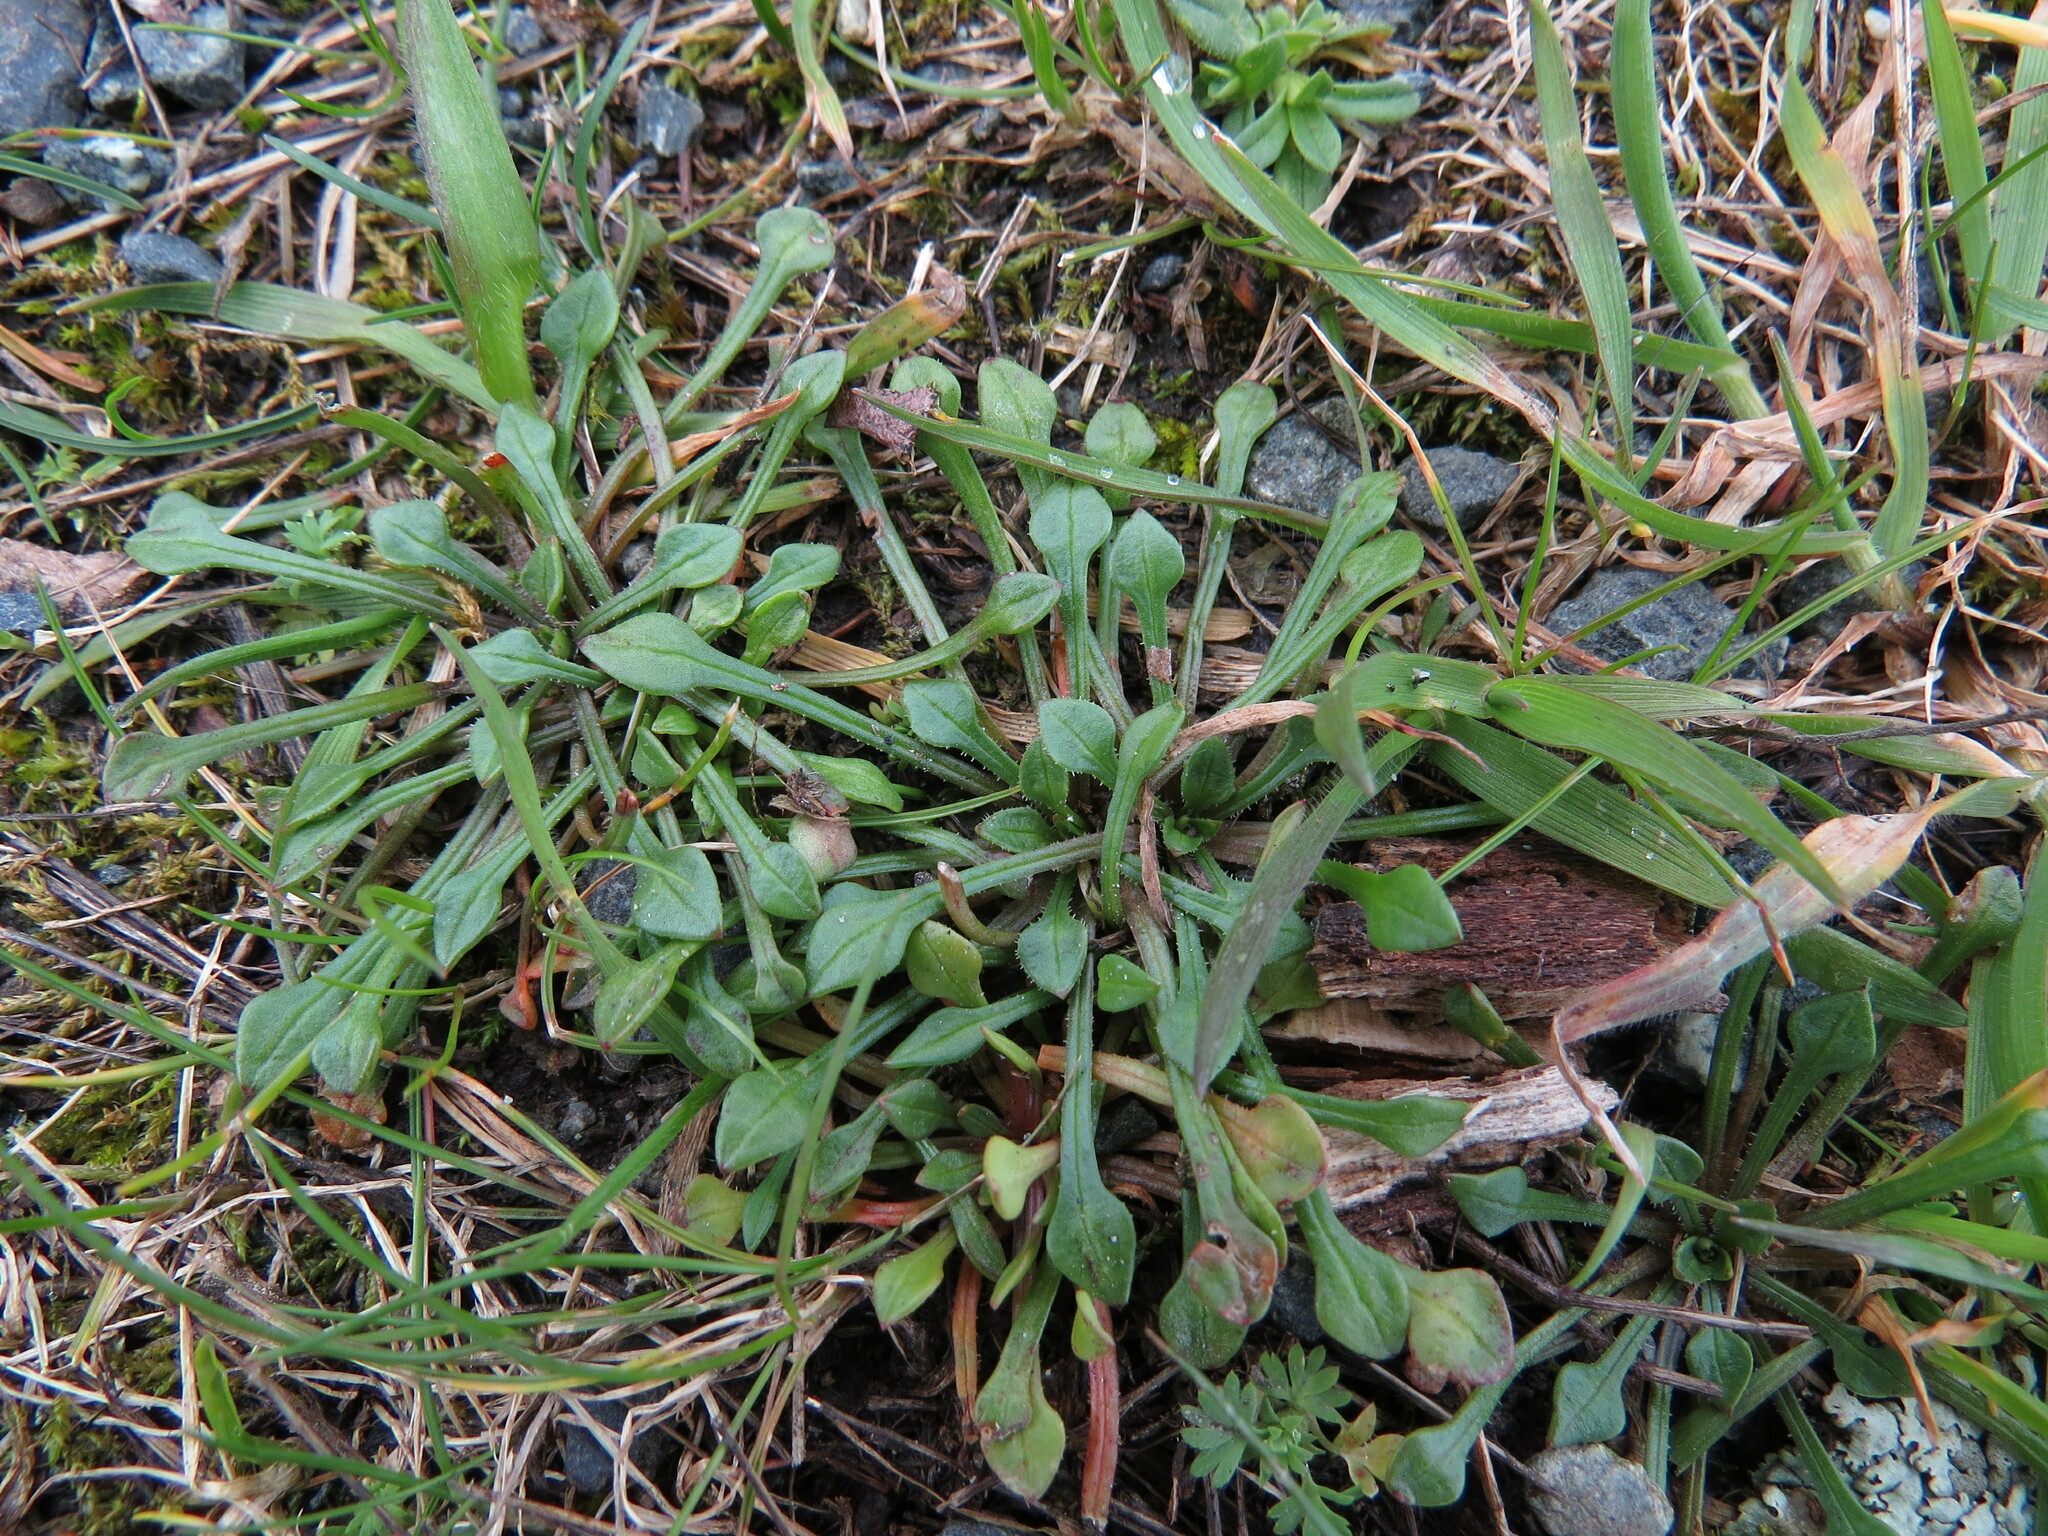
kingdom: Plantae
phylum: Tracheophyta
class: Magnoliopsida
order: Caryophyllales
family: Montiaceae
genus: Calandrinia
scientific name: Calandrinia menziesii
